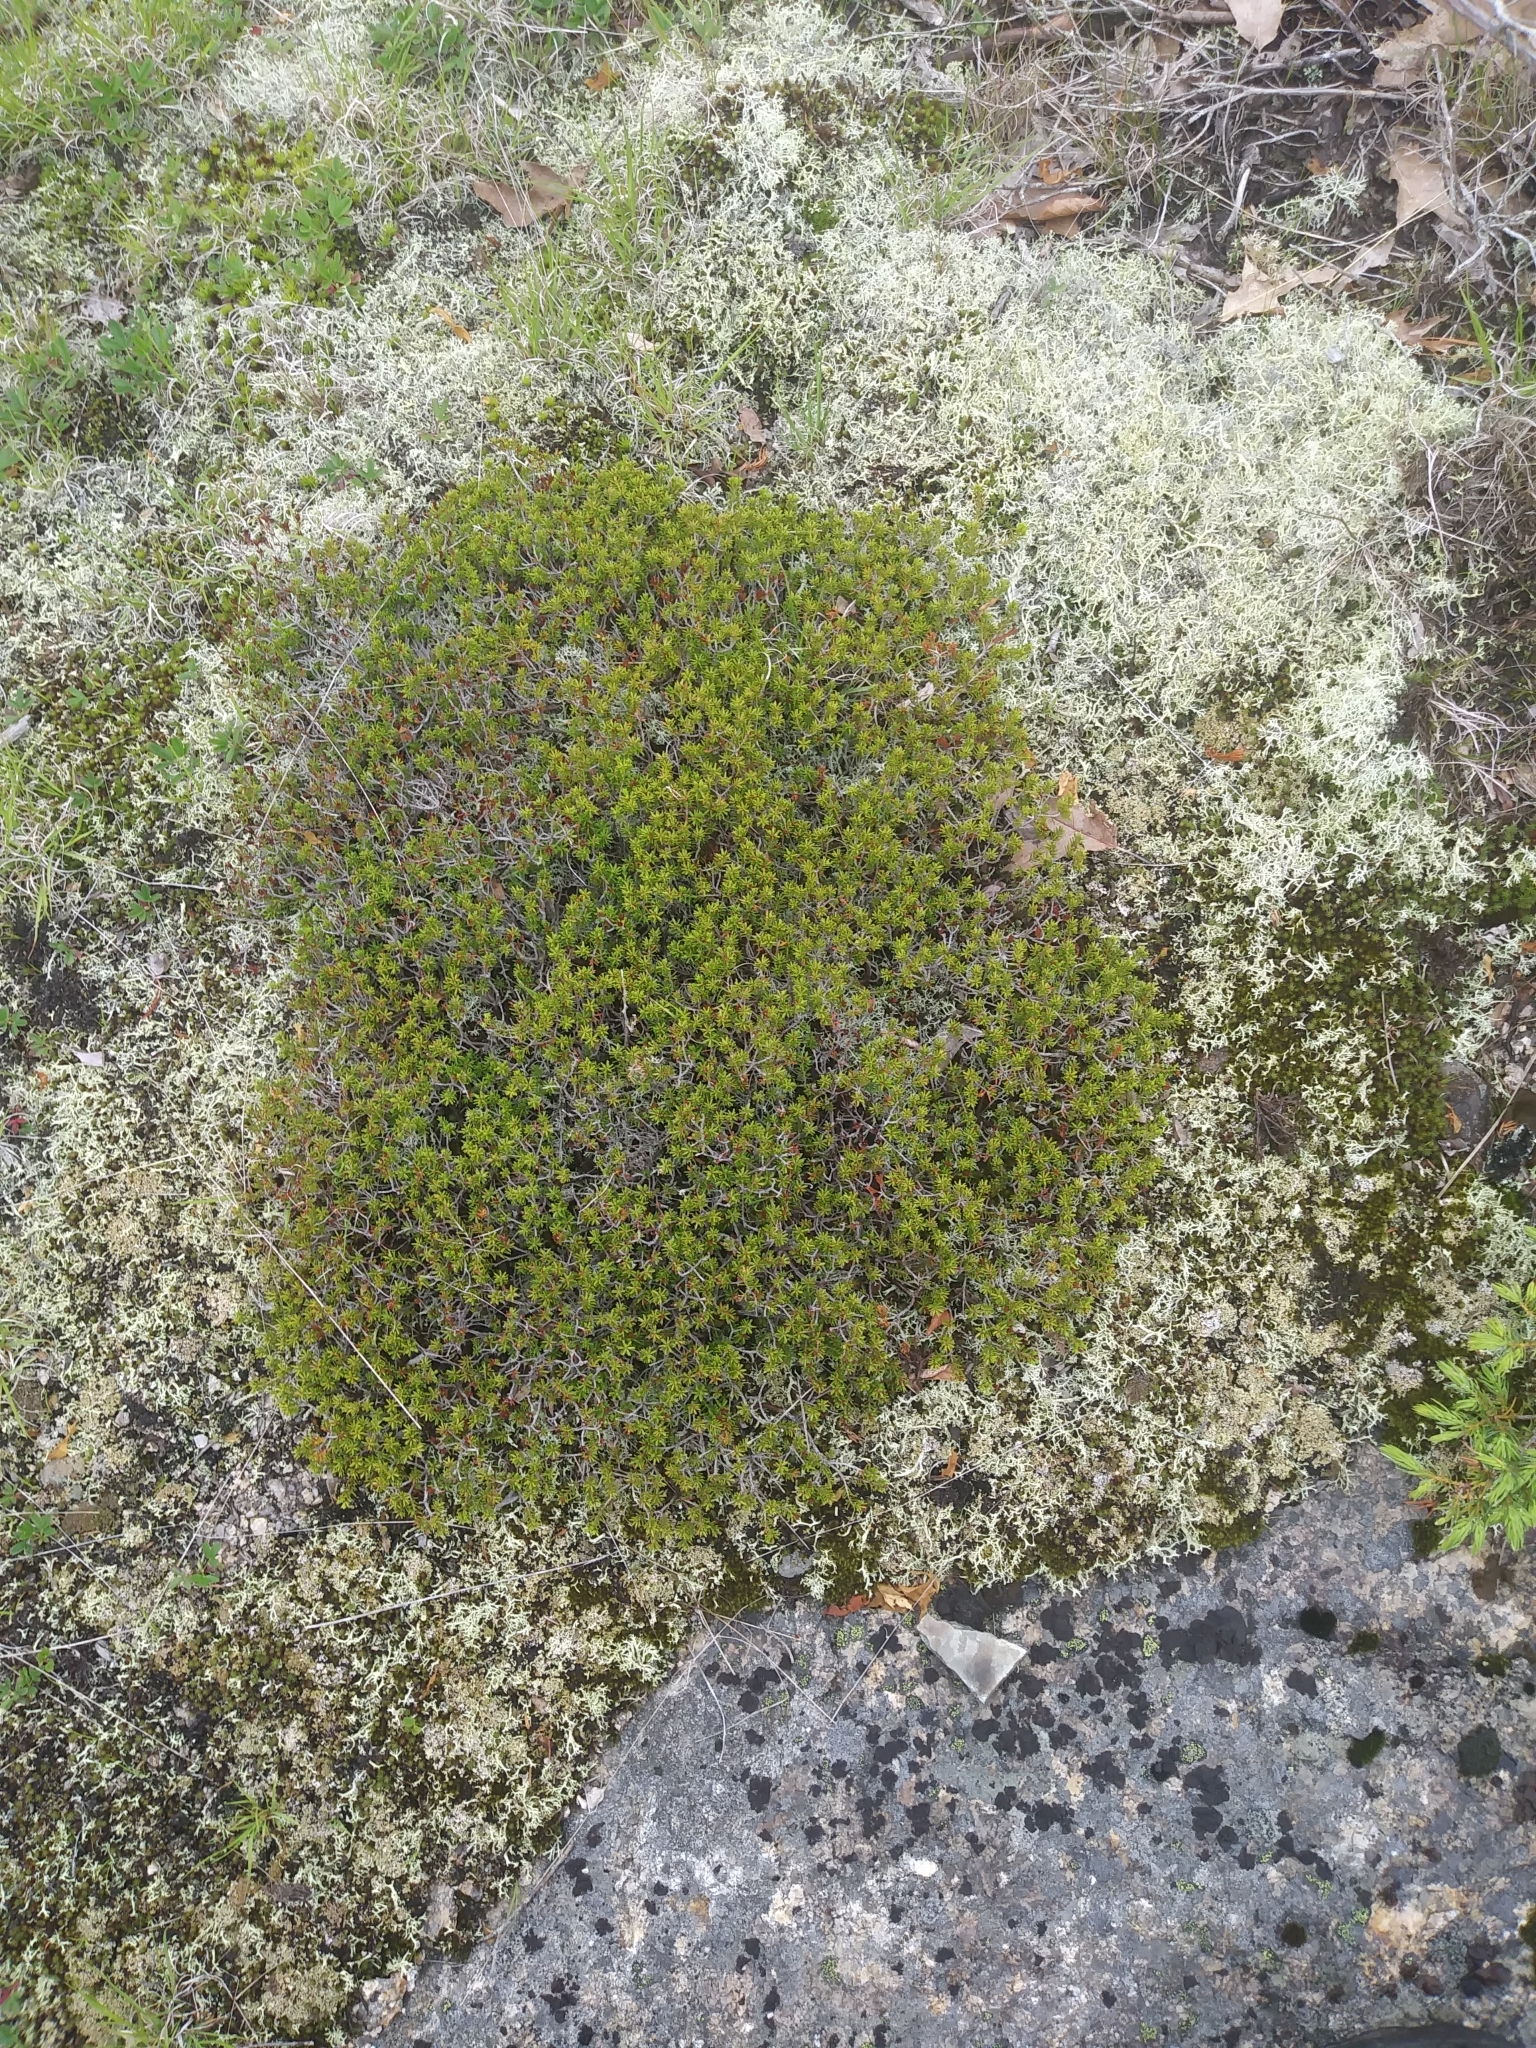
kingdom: Plantae
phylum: Tracheophyta
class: Magnoliopsida
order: Ericales
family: Ericaceae
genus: Corema
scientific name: Corema conradii
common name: Broom-crowberry
